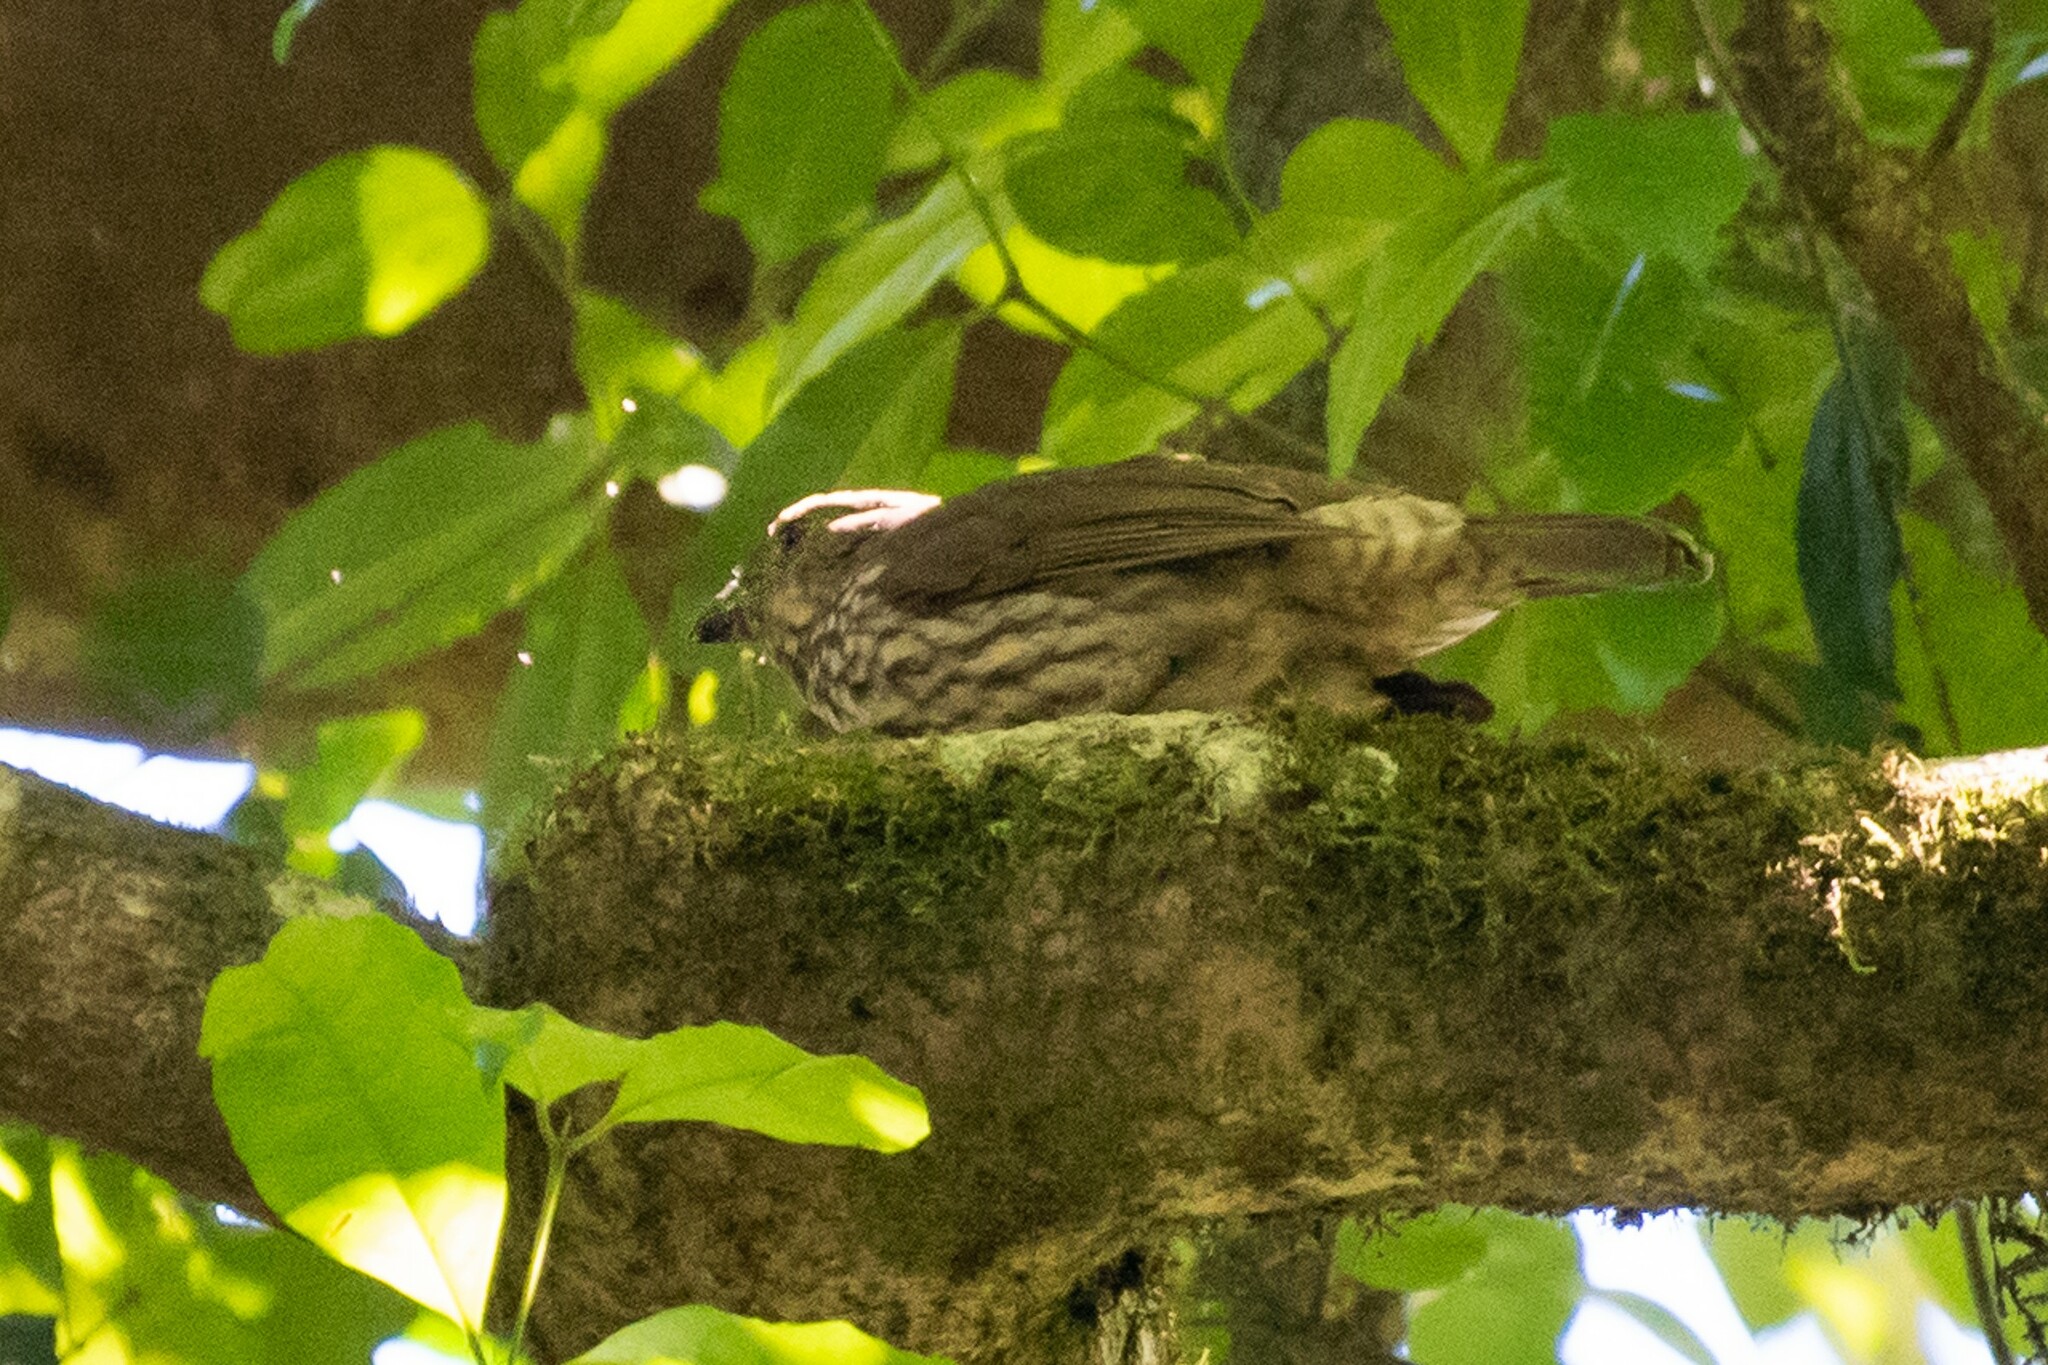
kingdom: Animalia
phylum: Chordata
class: Aves
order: Passeriformes
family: Ptilonorhynchidae
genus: Scenopoeetes
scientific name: Scenopoeetes dentirostris
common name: Tooth-billed bowerbird
